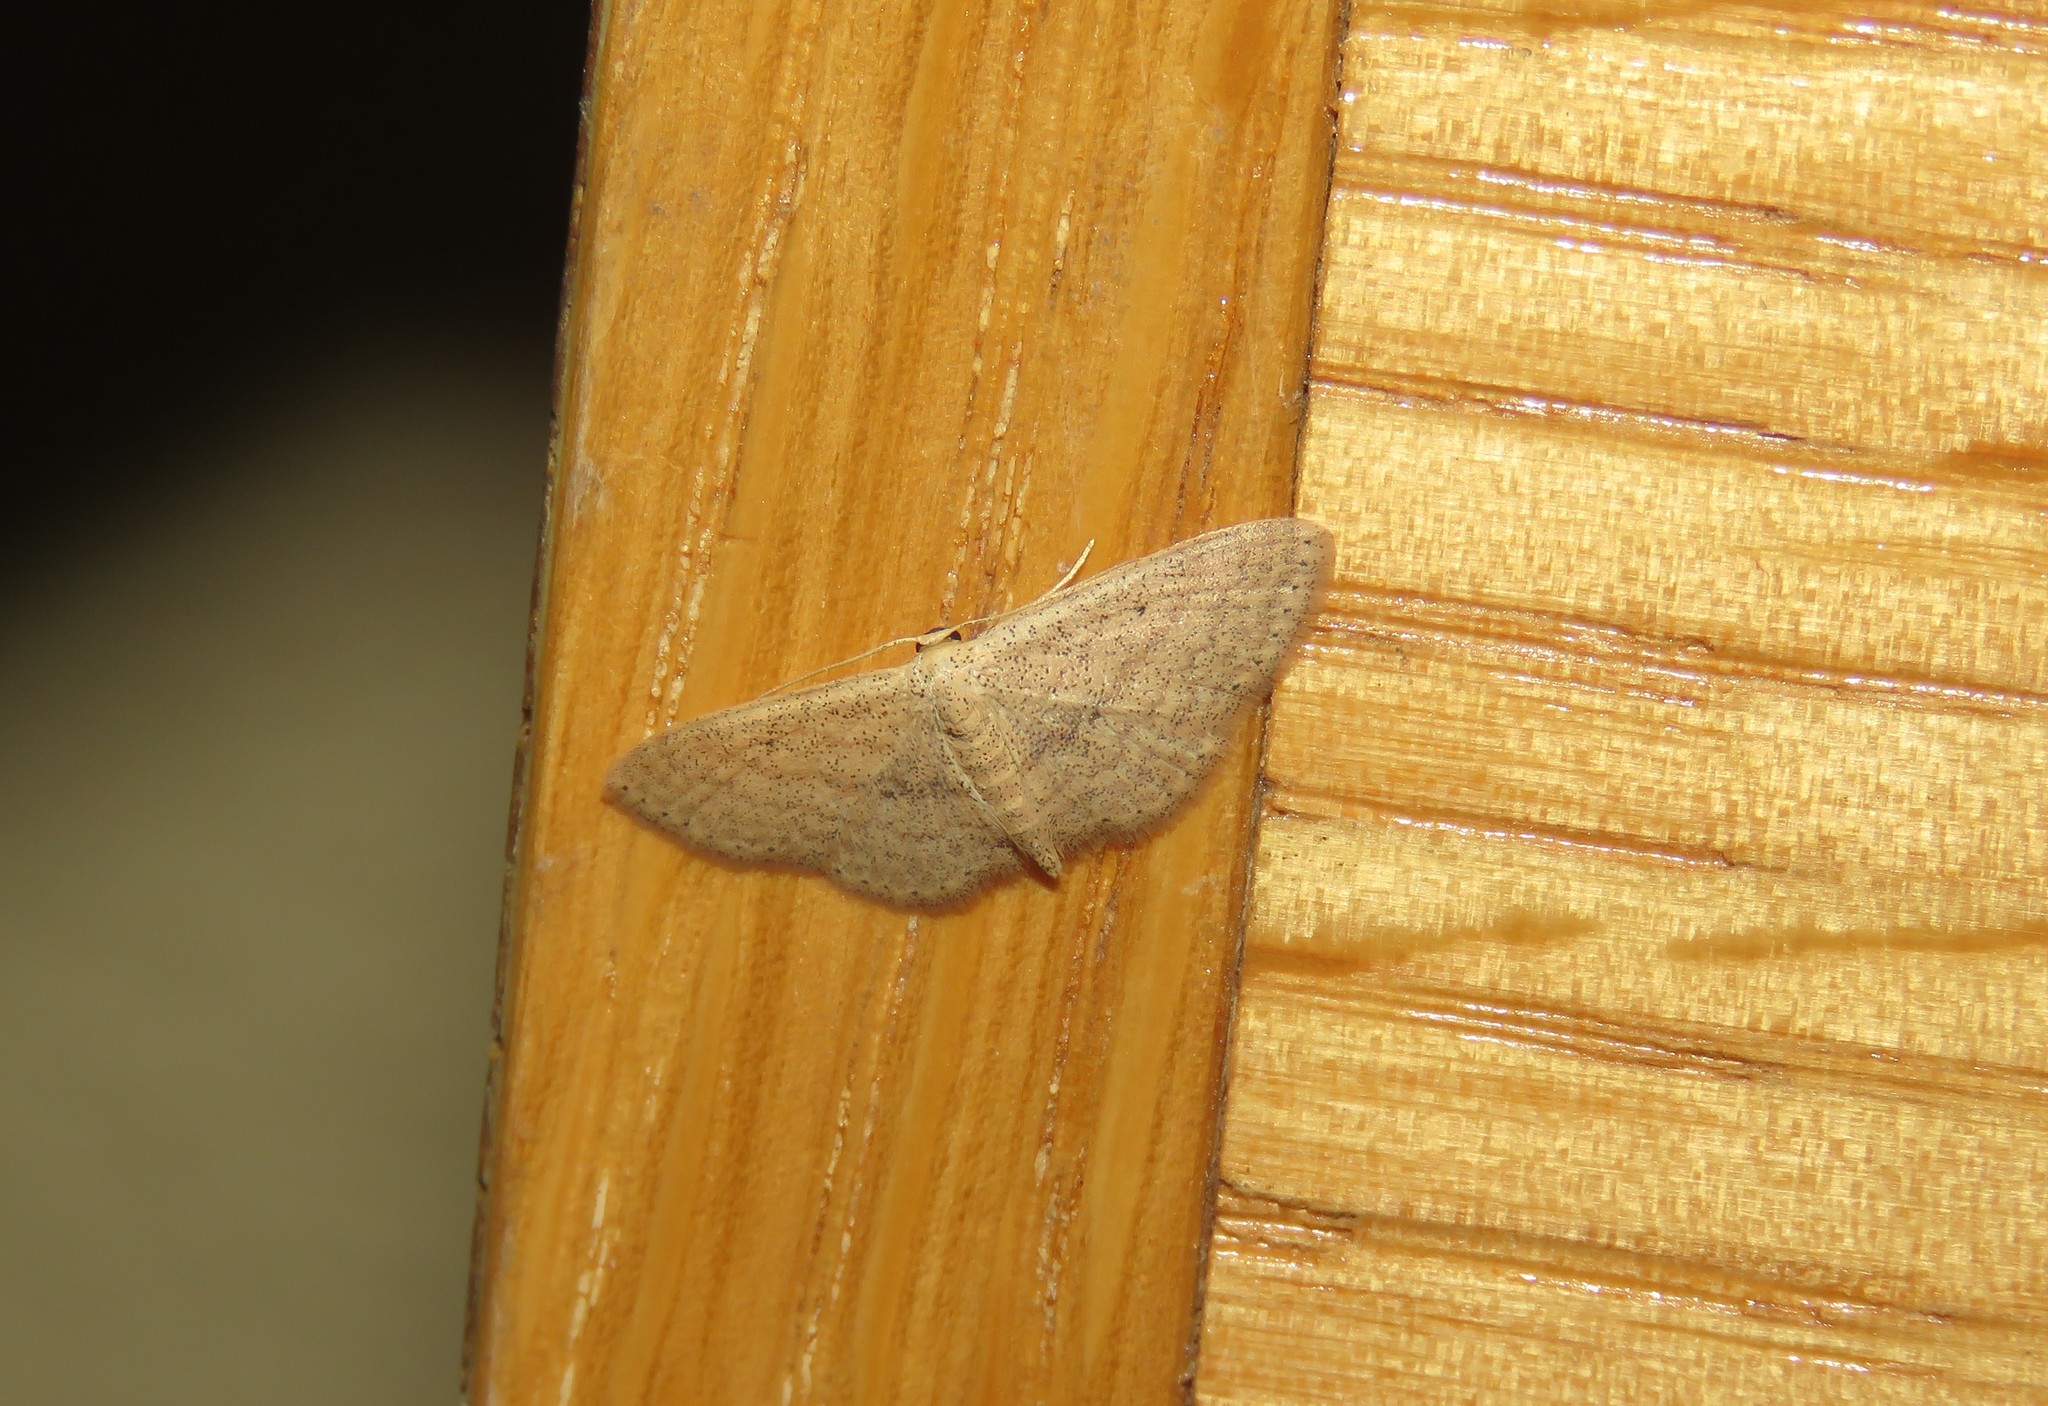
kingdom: Animalia
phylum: Arthropoda
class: Insecta
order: Lepidoptera
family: Geometridae
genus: Scopula
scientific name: Scopula minorata
